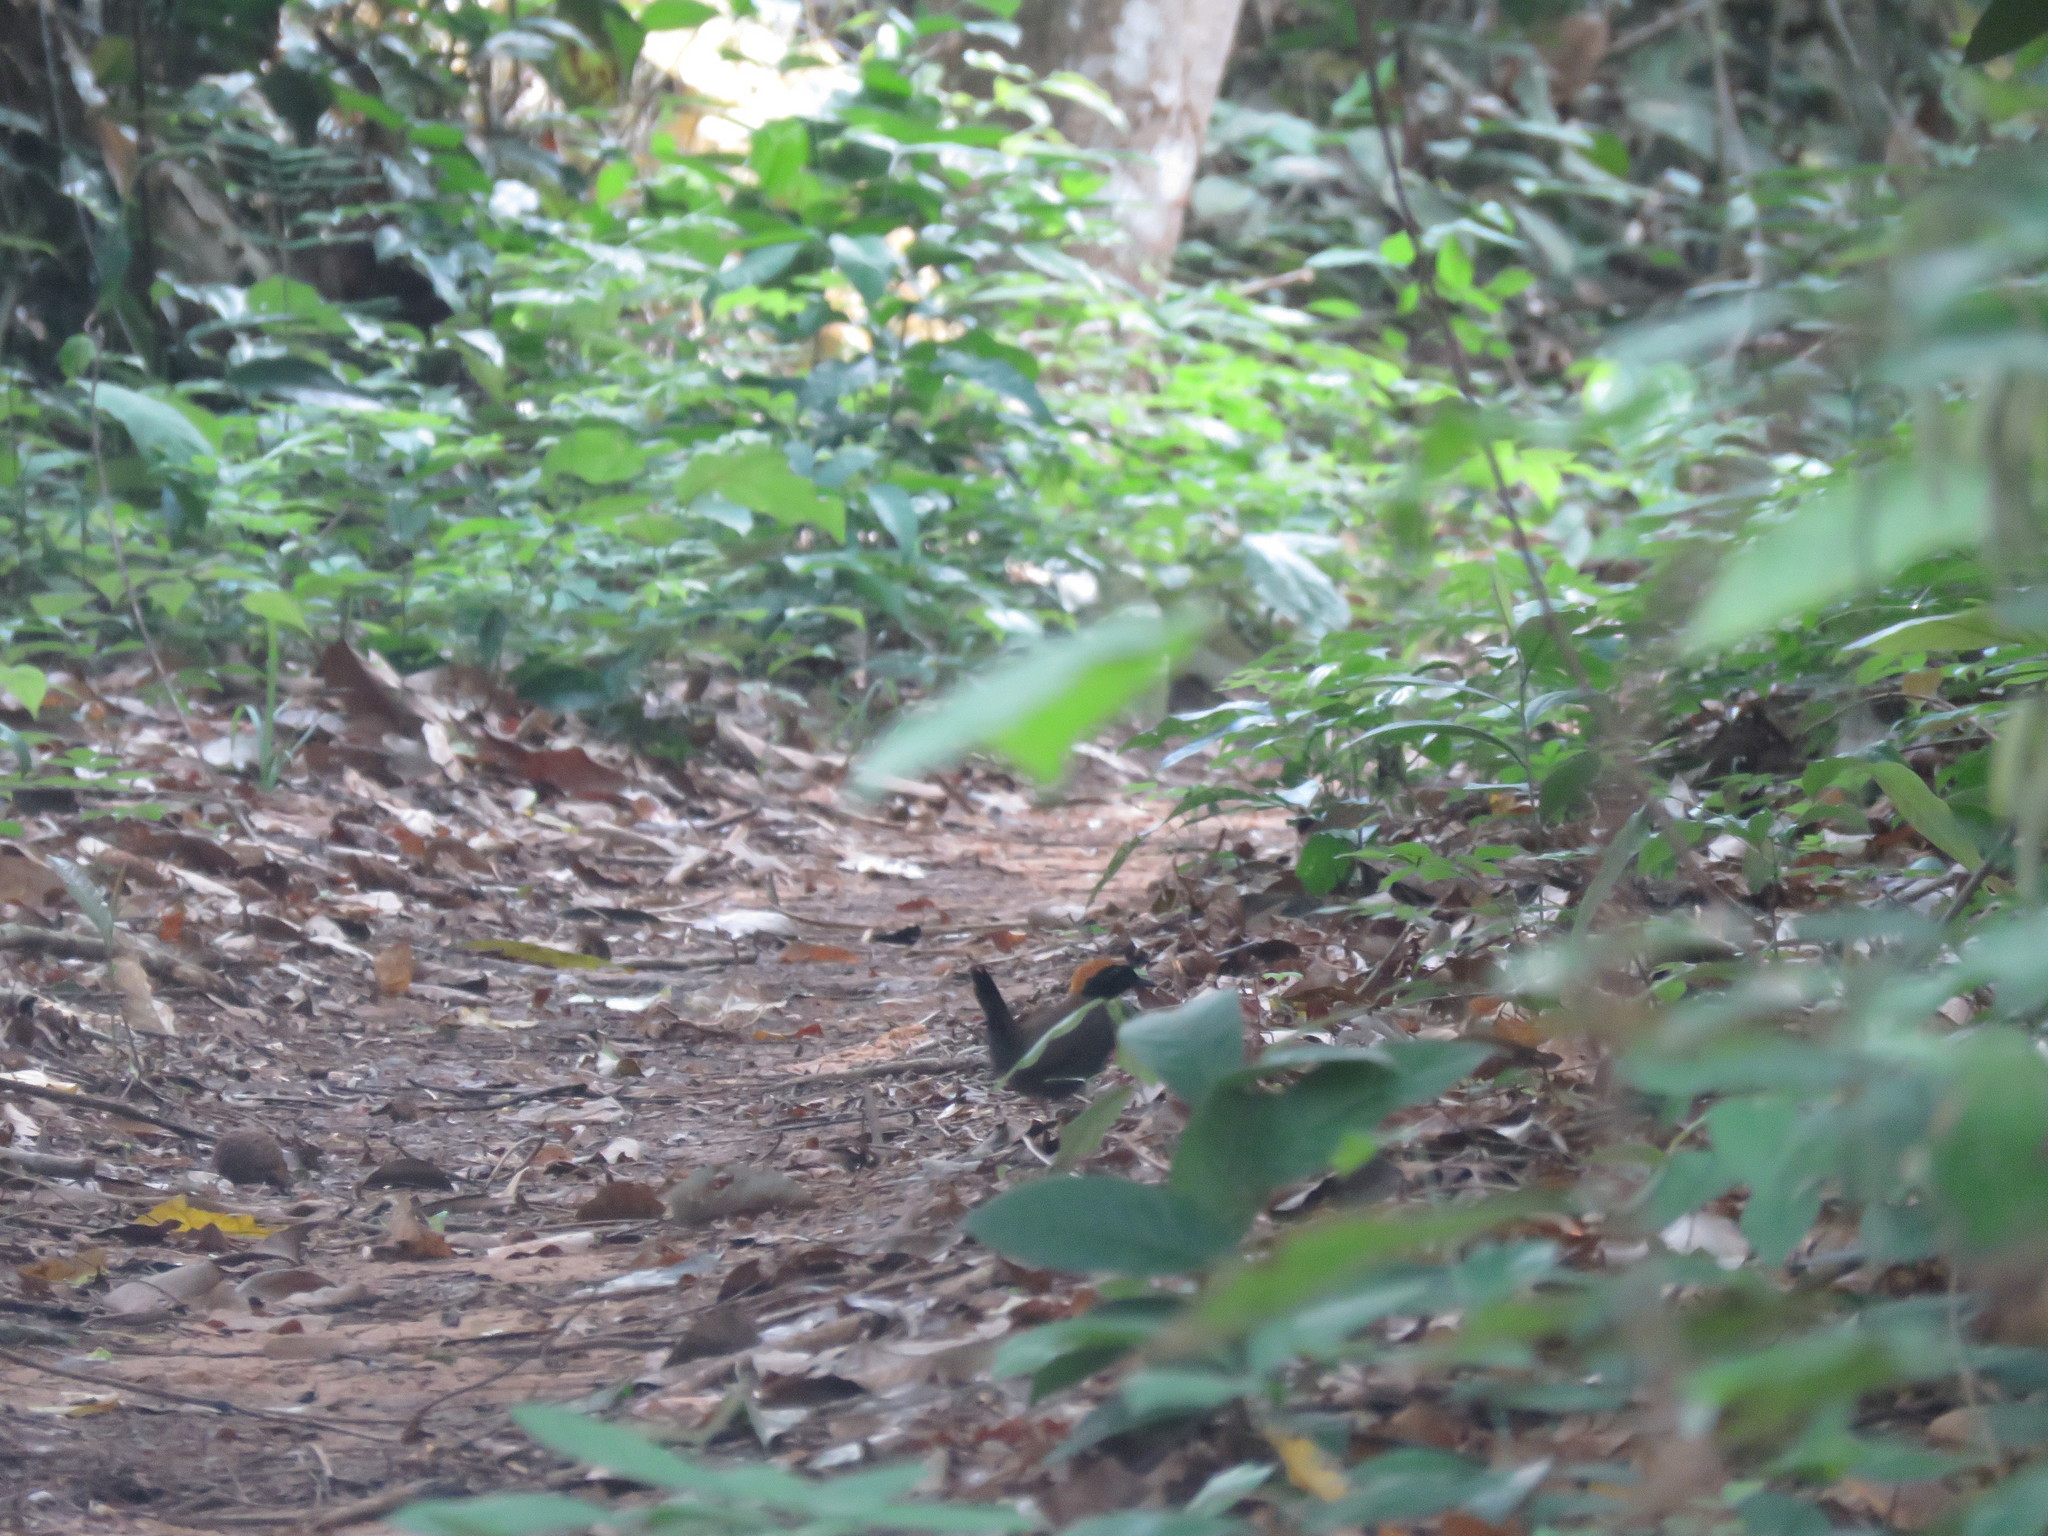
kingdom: Animalia
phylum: Chordata
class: Aves
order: Passeriformes
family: Formicariidae
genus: Formicarius
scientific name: Formicarius colma
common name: Rufous-capped antthrush
